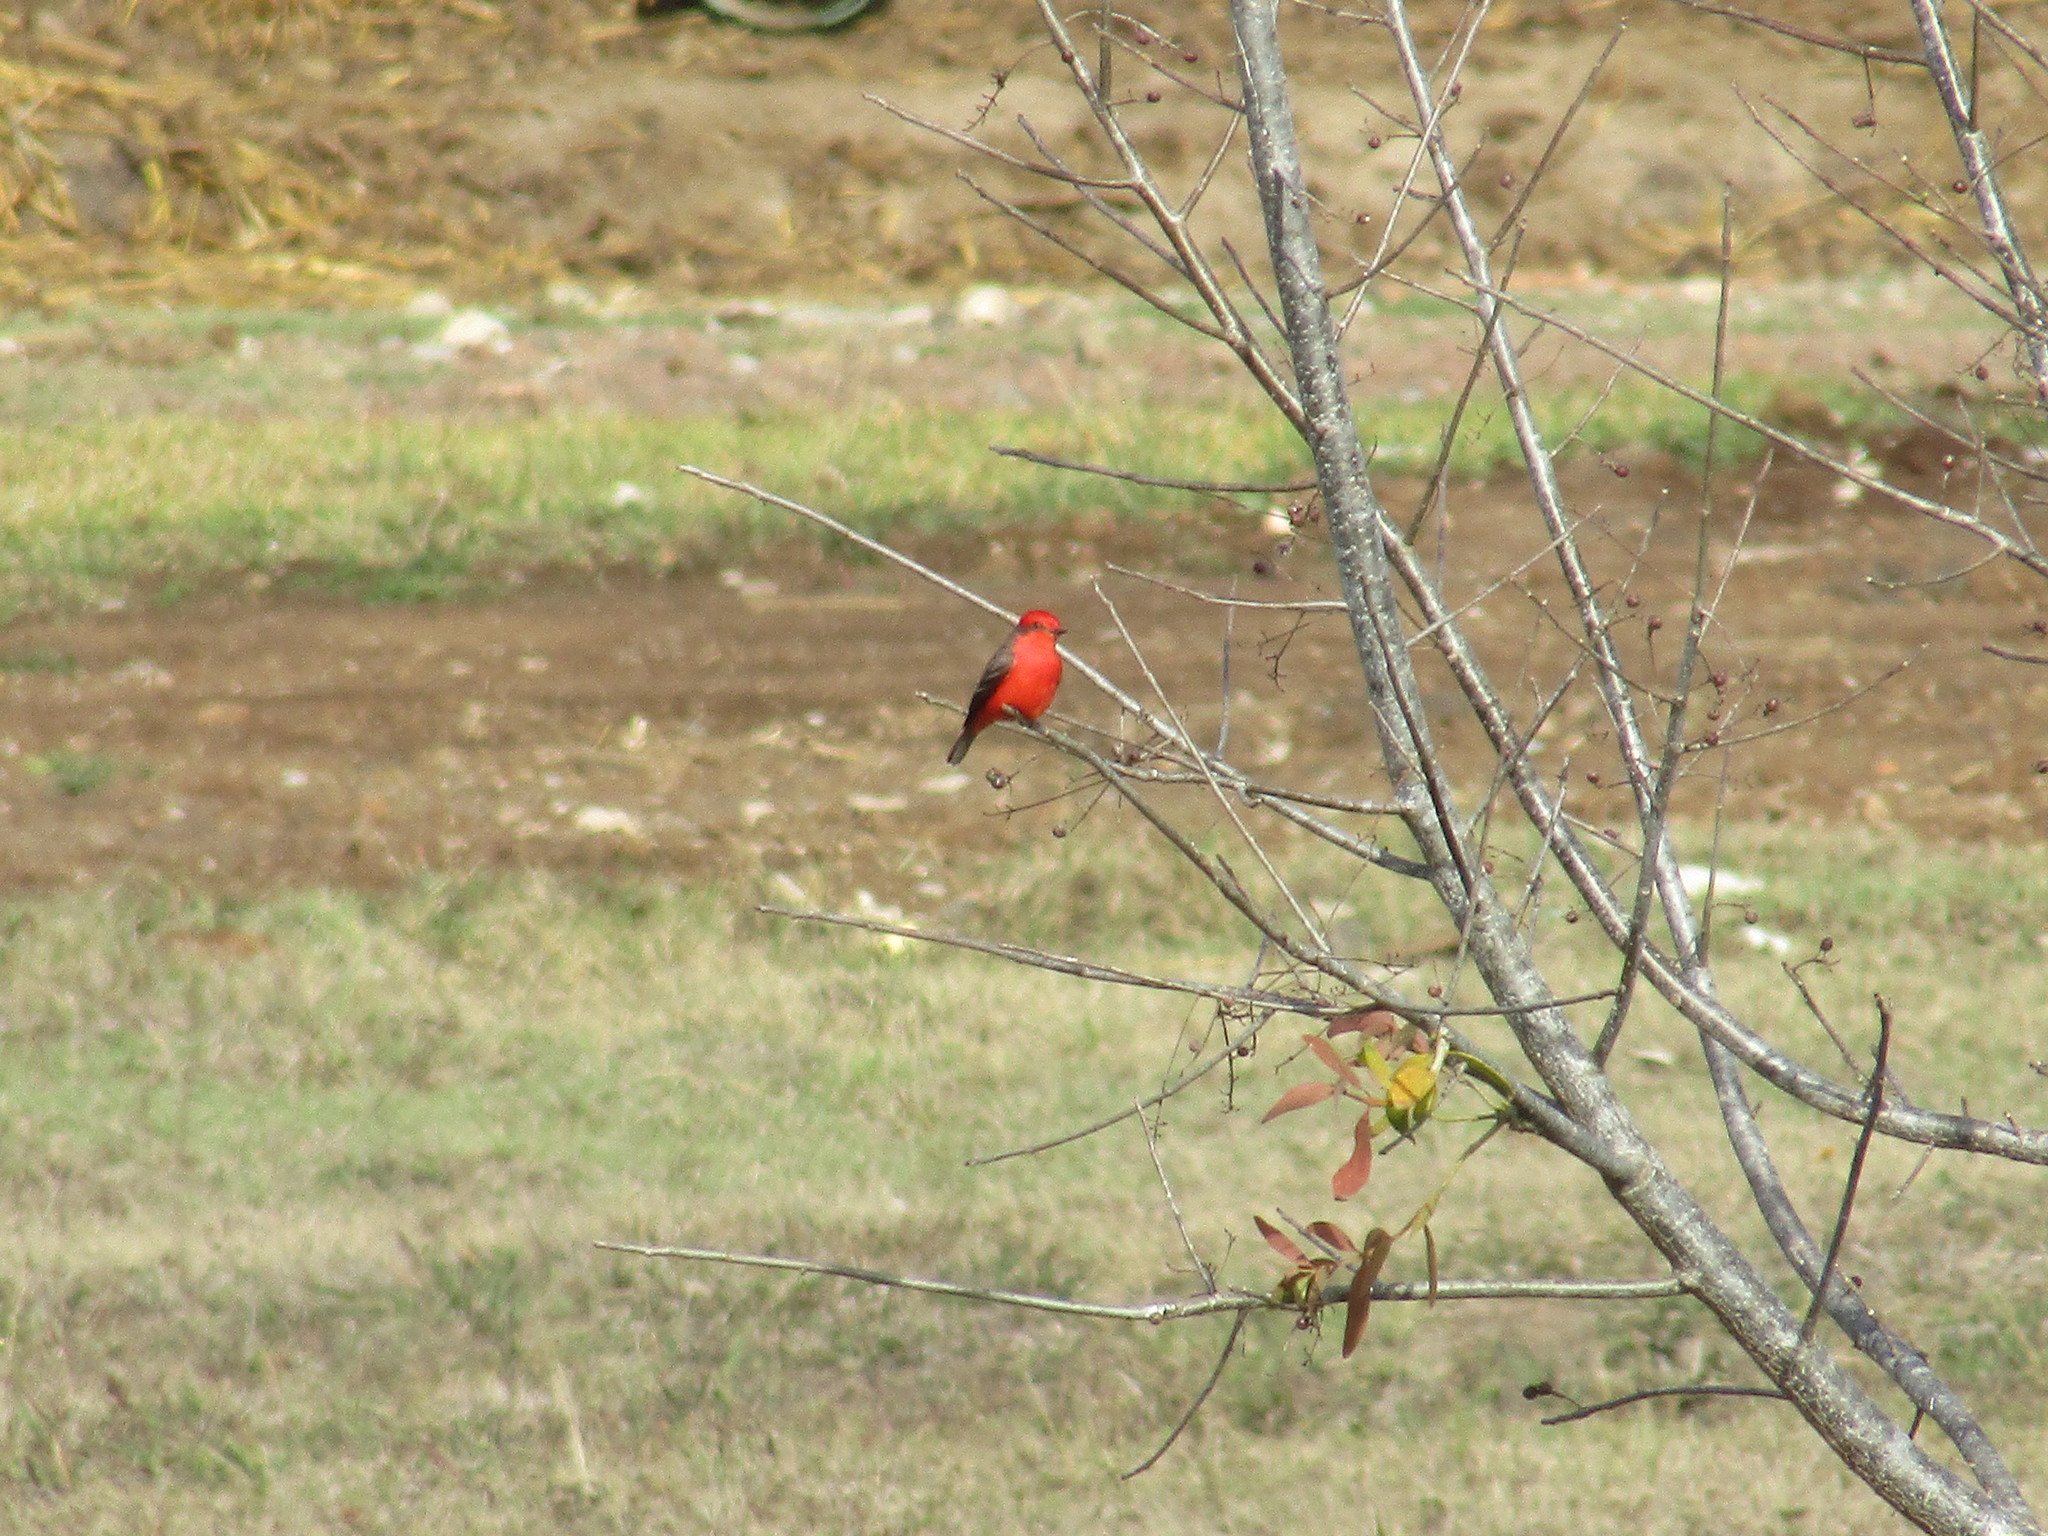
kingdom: Animalia
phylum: Chordata
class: Aves
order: Passeriformes
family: Tyrannidae
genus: Pyrocephalus
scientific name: Pyrocephalus rubinus
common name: Vermilion flycatcher
